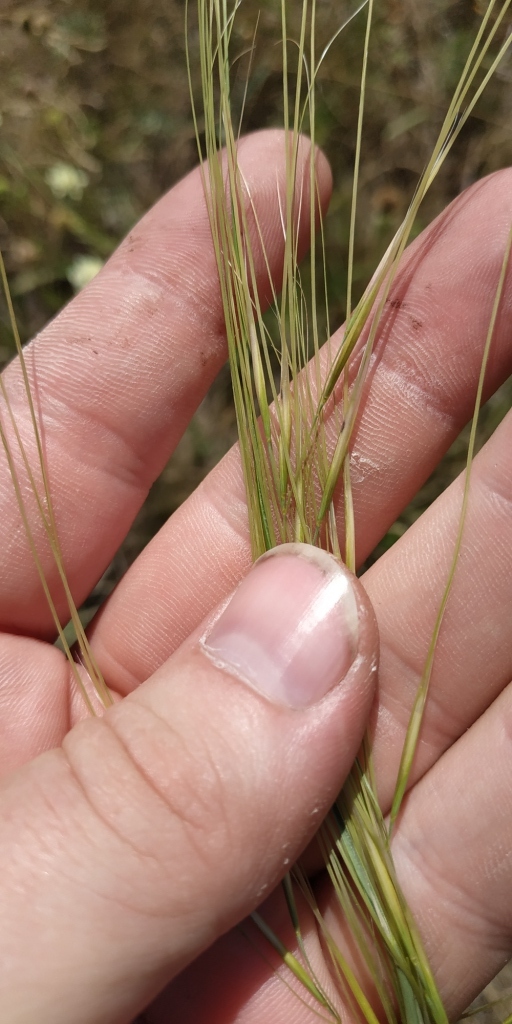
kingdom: Plantae
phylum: Tracheophyta
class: Liliopsida
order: Poales
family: Poaceae
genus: Stipa
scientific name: Stipa capillata
